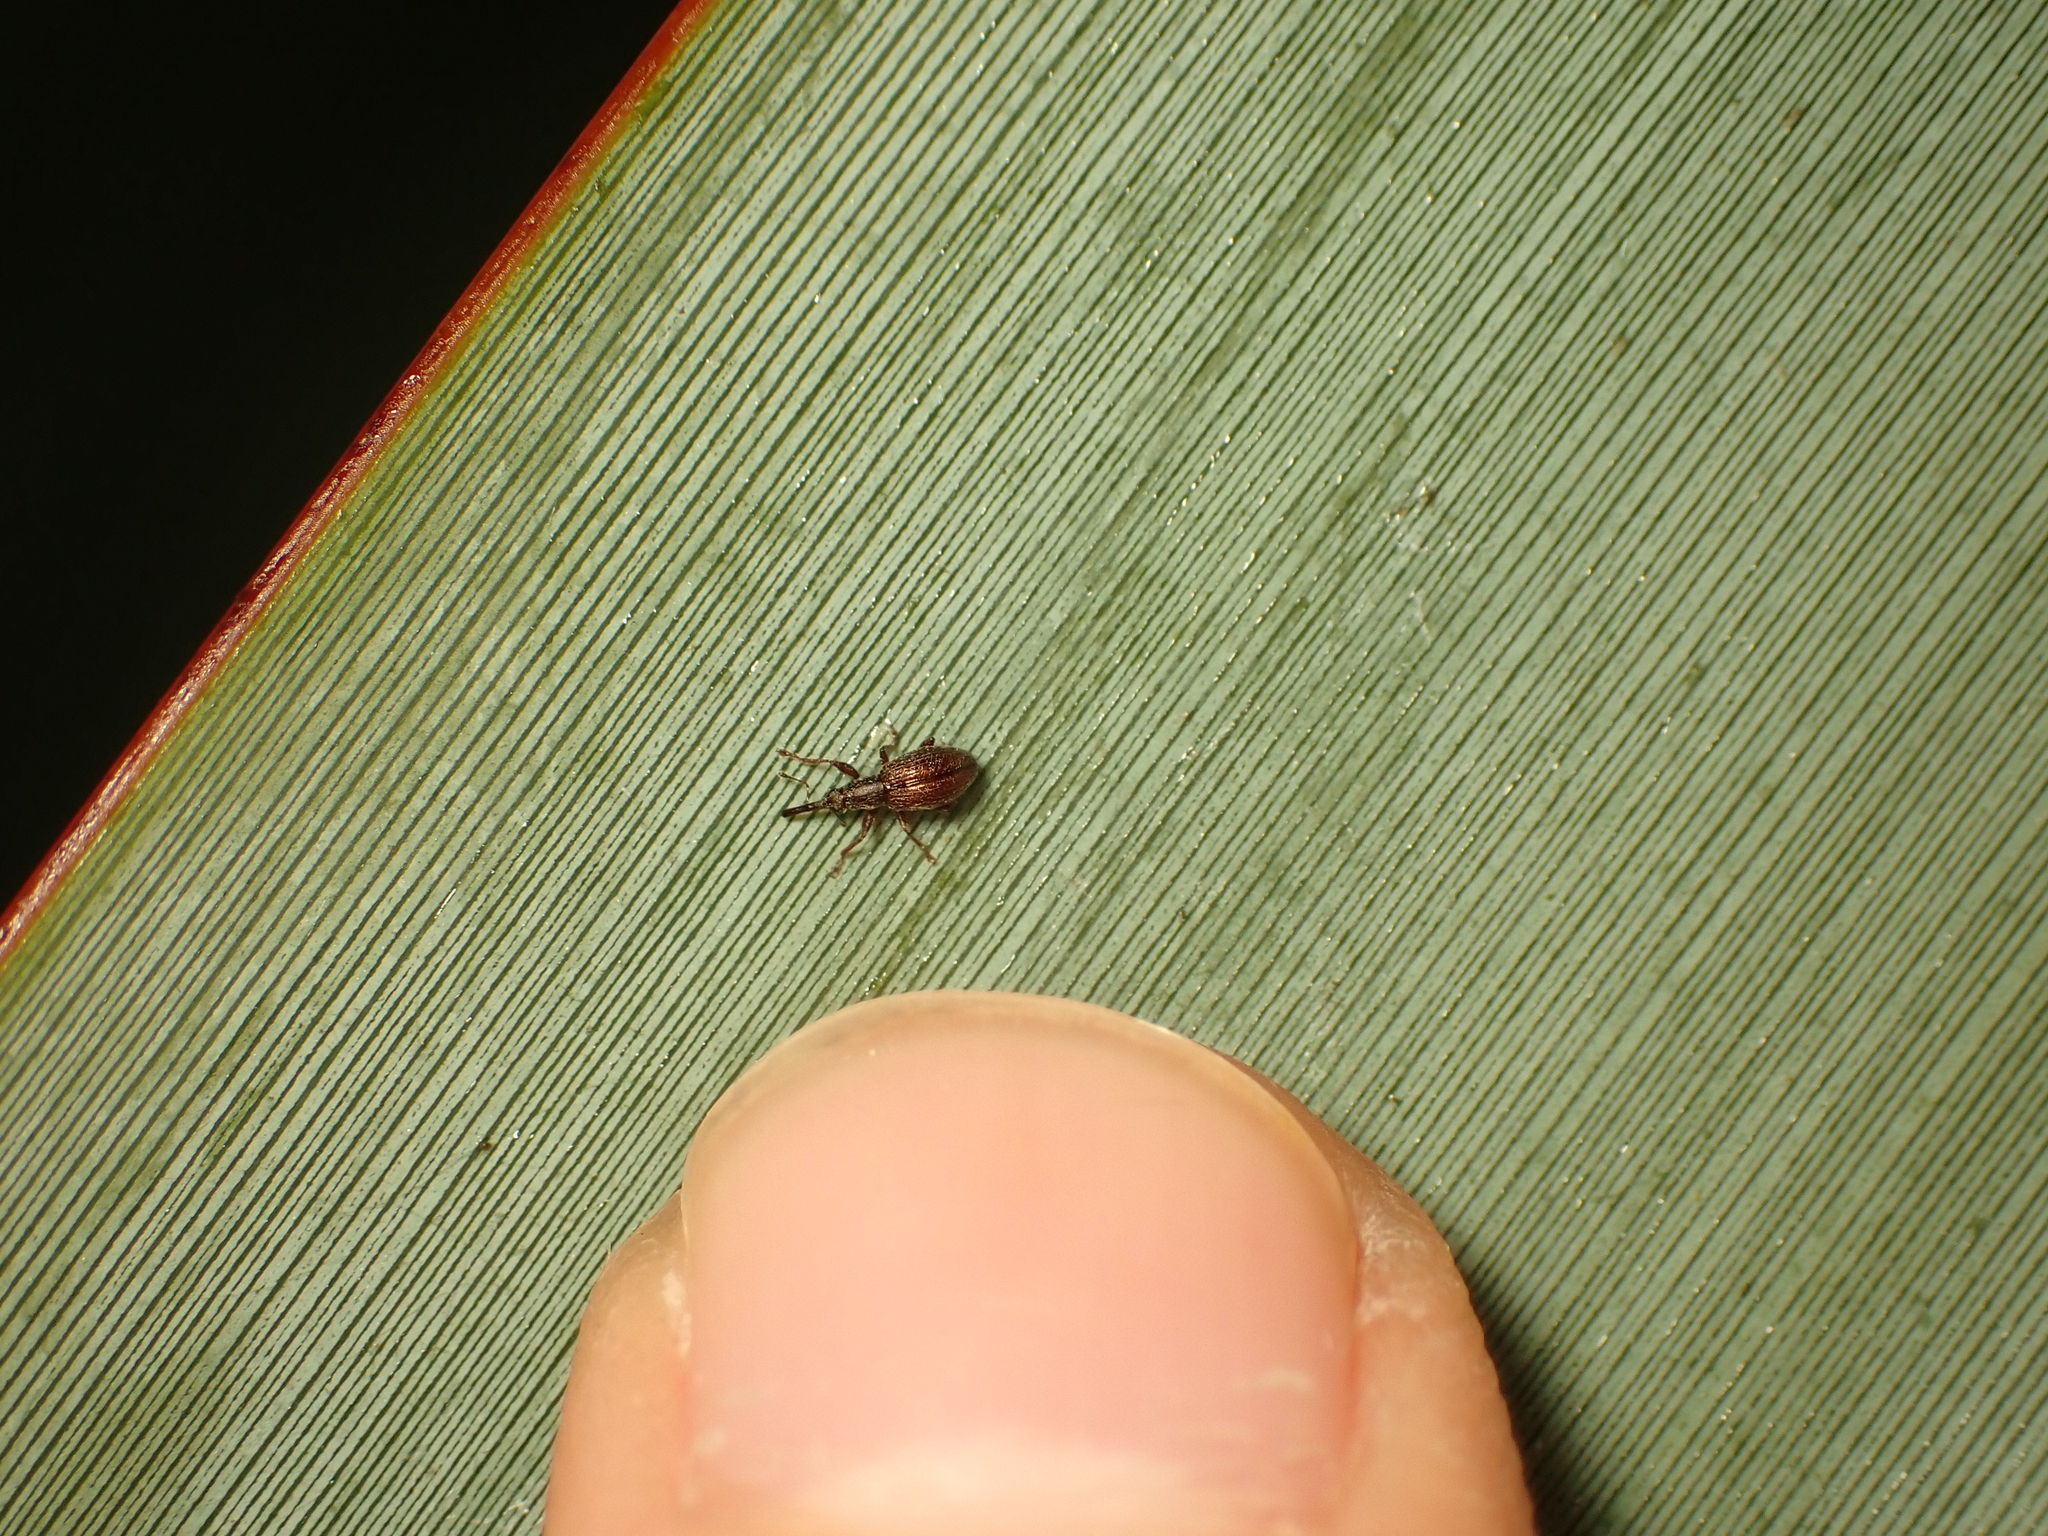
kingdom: Animalia
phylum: Arthropoda
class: Insecta
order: Coleoptera
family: Brentidae
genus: Neocyba
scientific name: Neocyba metrosideros
